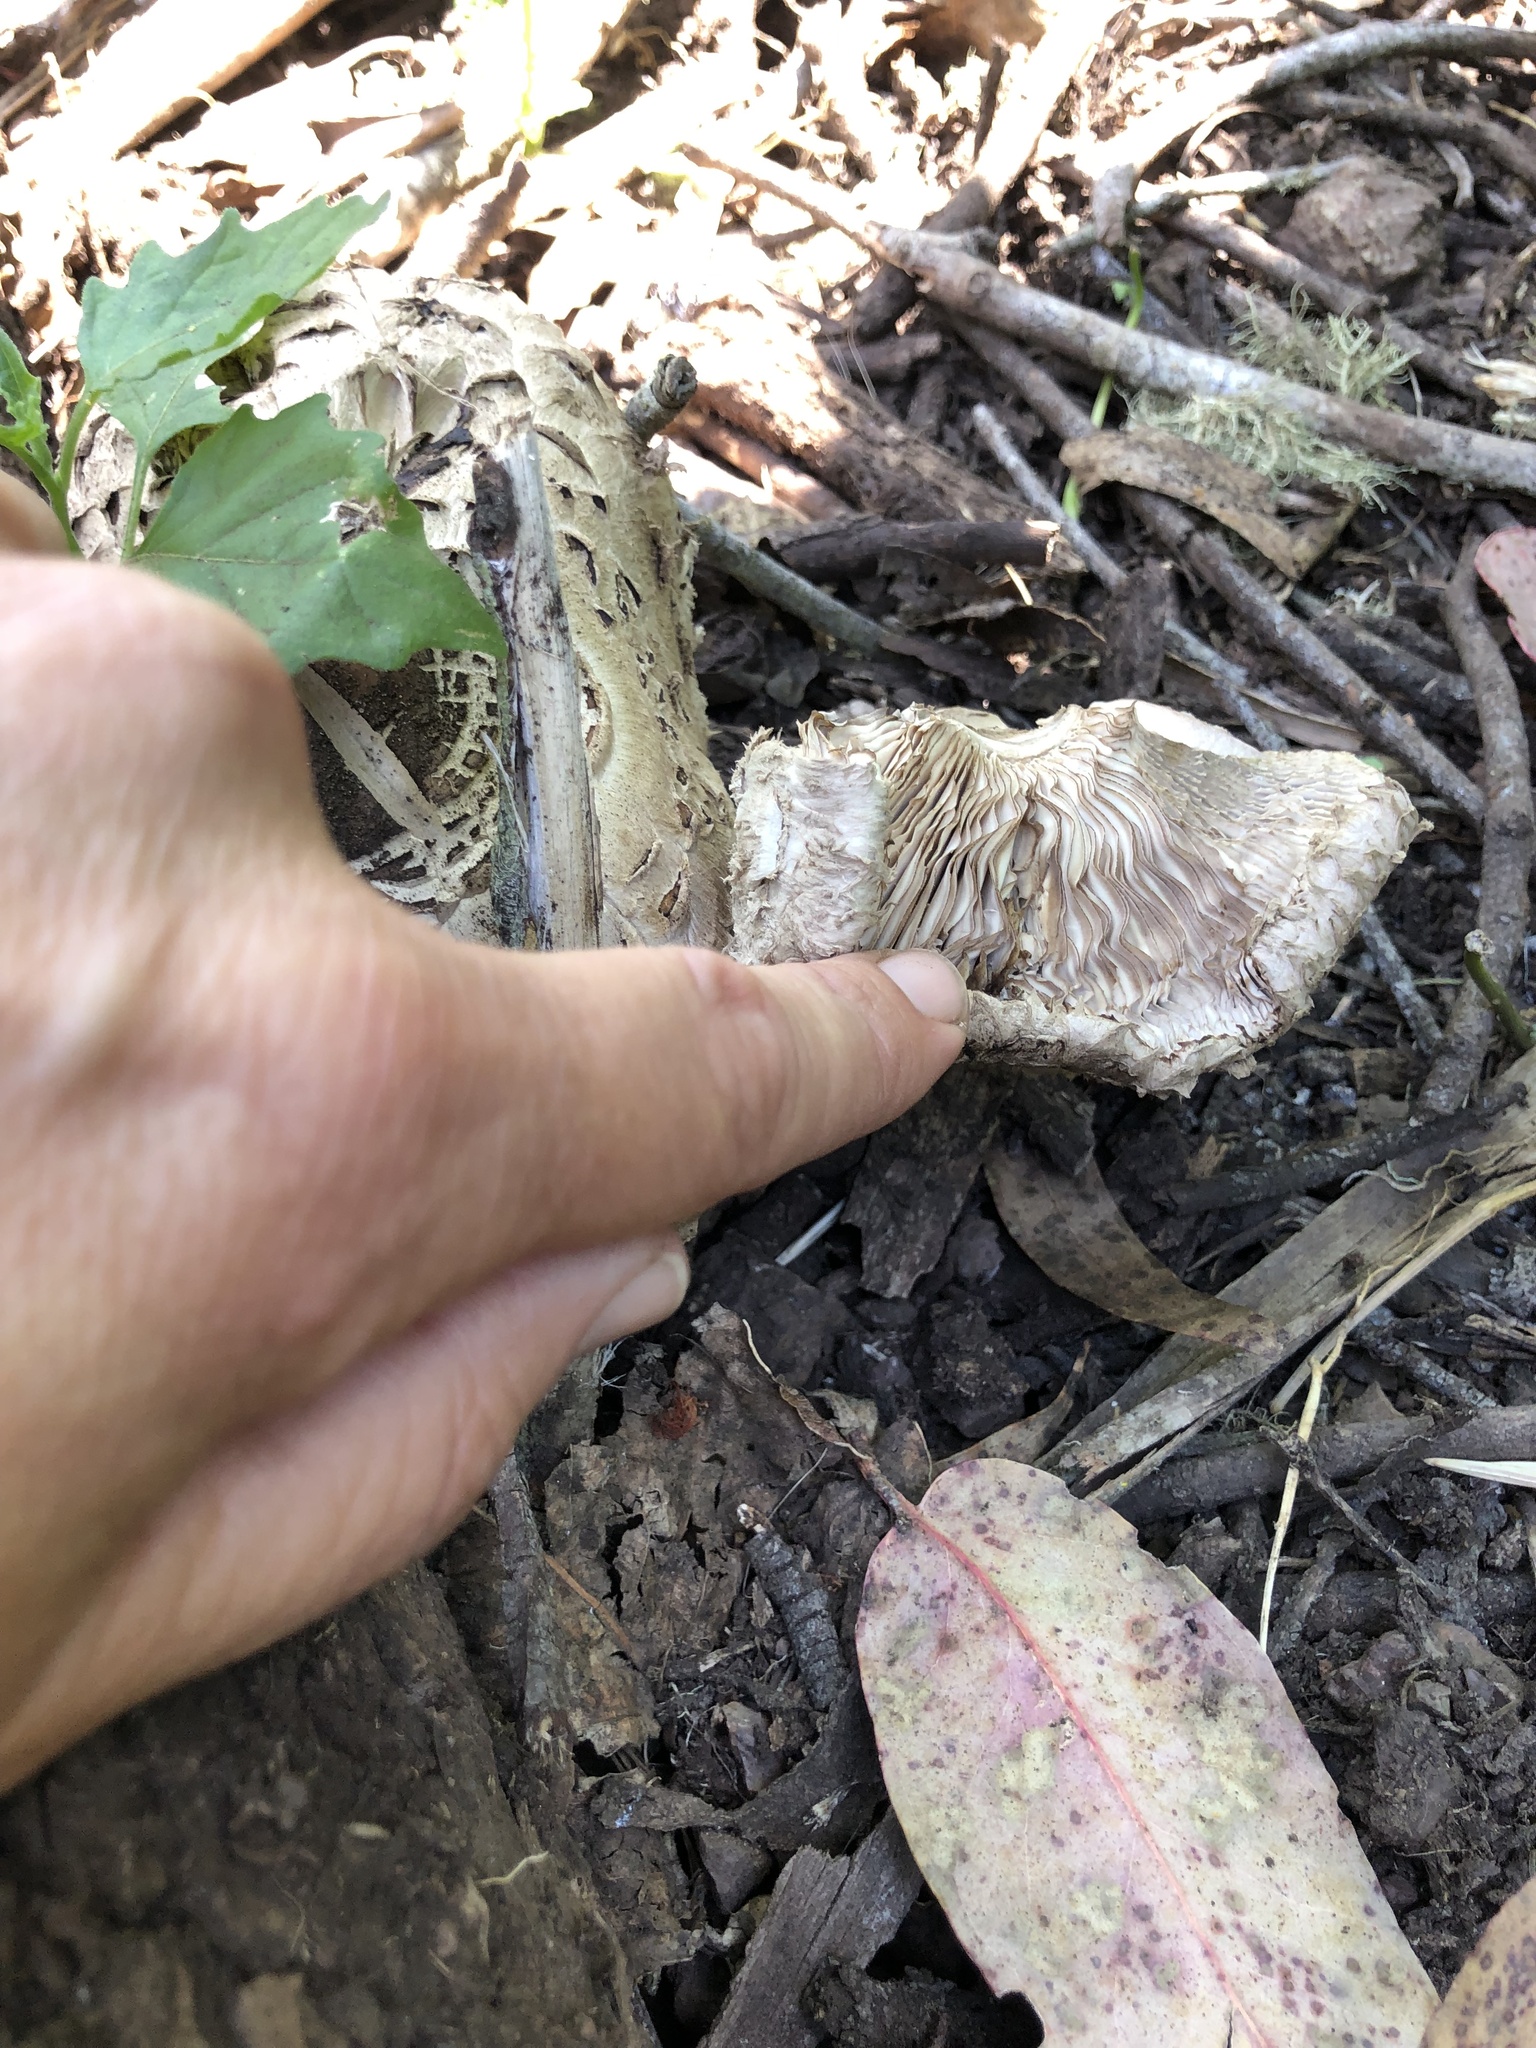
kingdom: Fungi
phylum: Basidiomycota
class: Agaricomycetes
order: Agaricales
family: Agaricaceae
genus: Chlorophyllum
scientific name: Chlorophyllum brunneum
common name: Brown parasol
